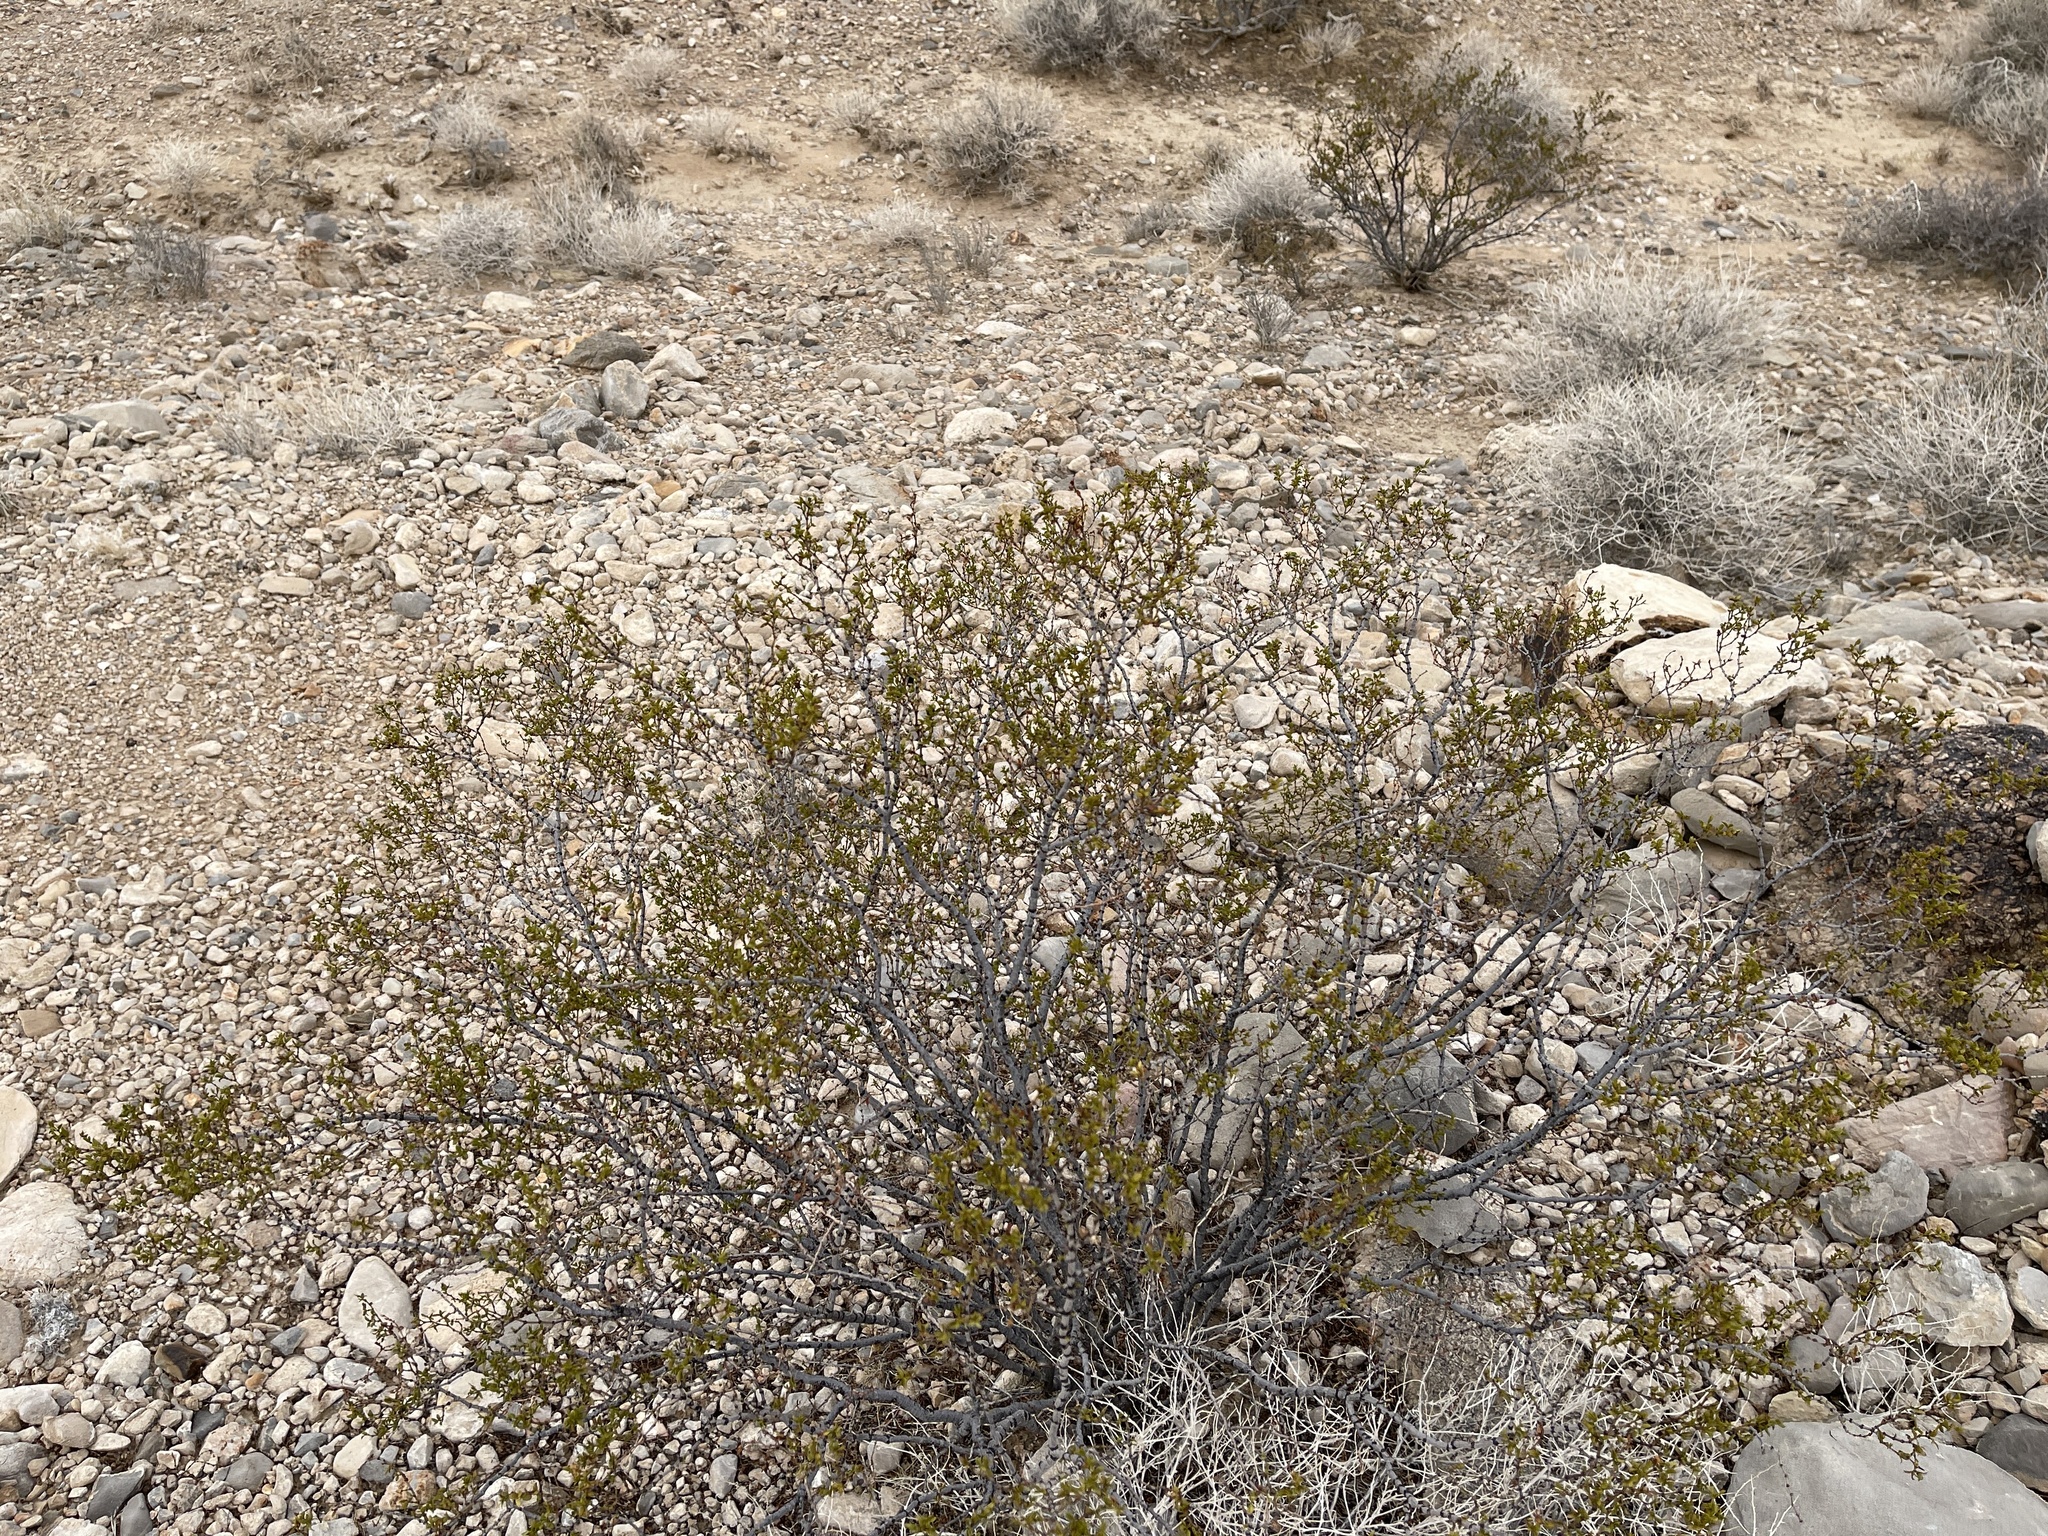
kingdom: Plantae
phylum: Tracheophyta
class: Magnoliopsida
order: Zygophyllales
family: Zygophyllaceae
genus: Larrea
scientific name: Larrea tridentata
